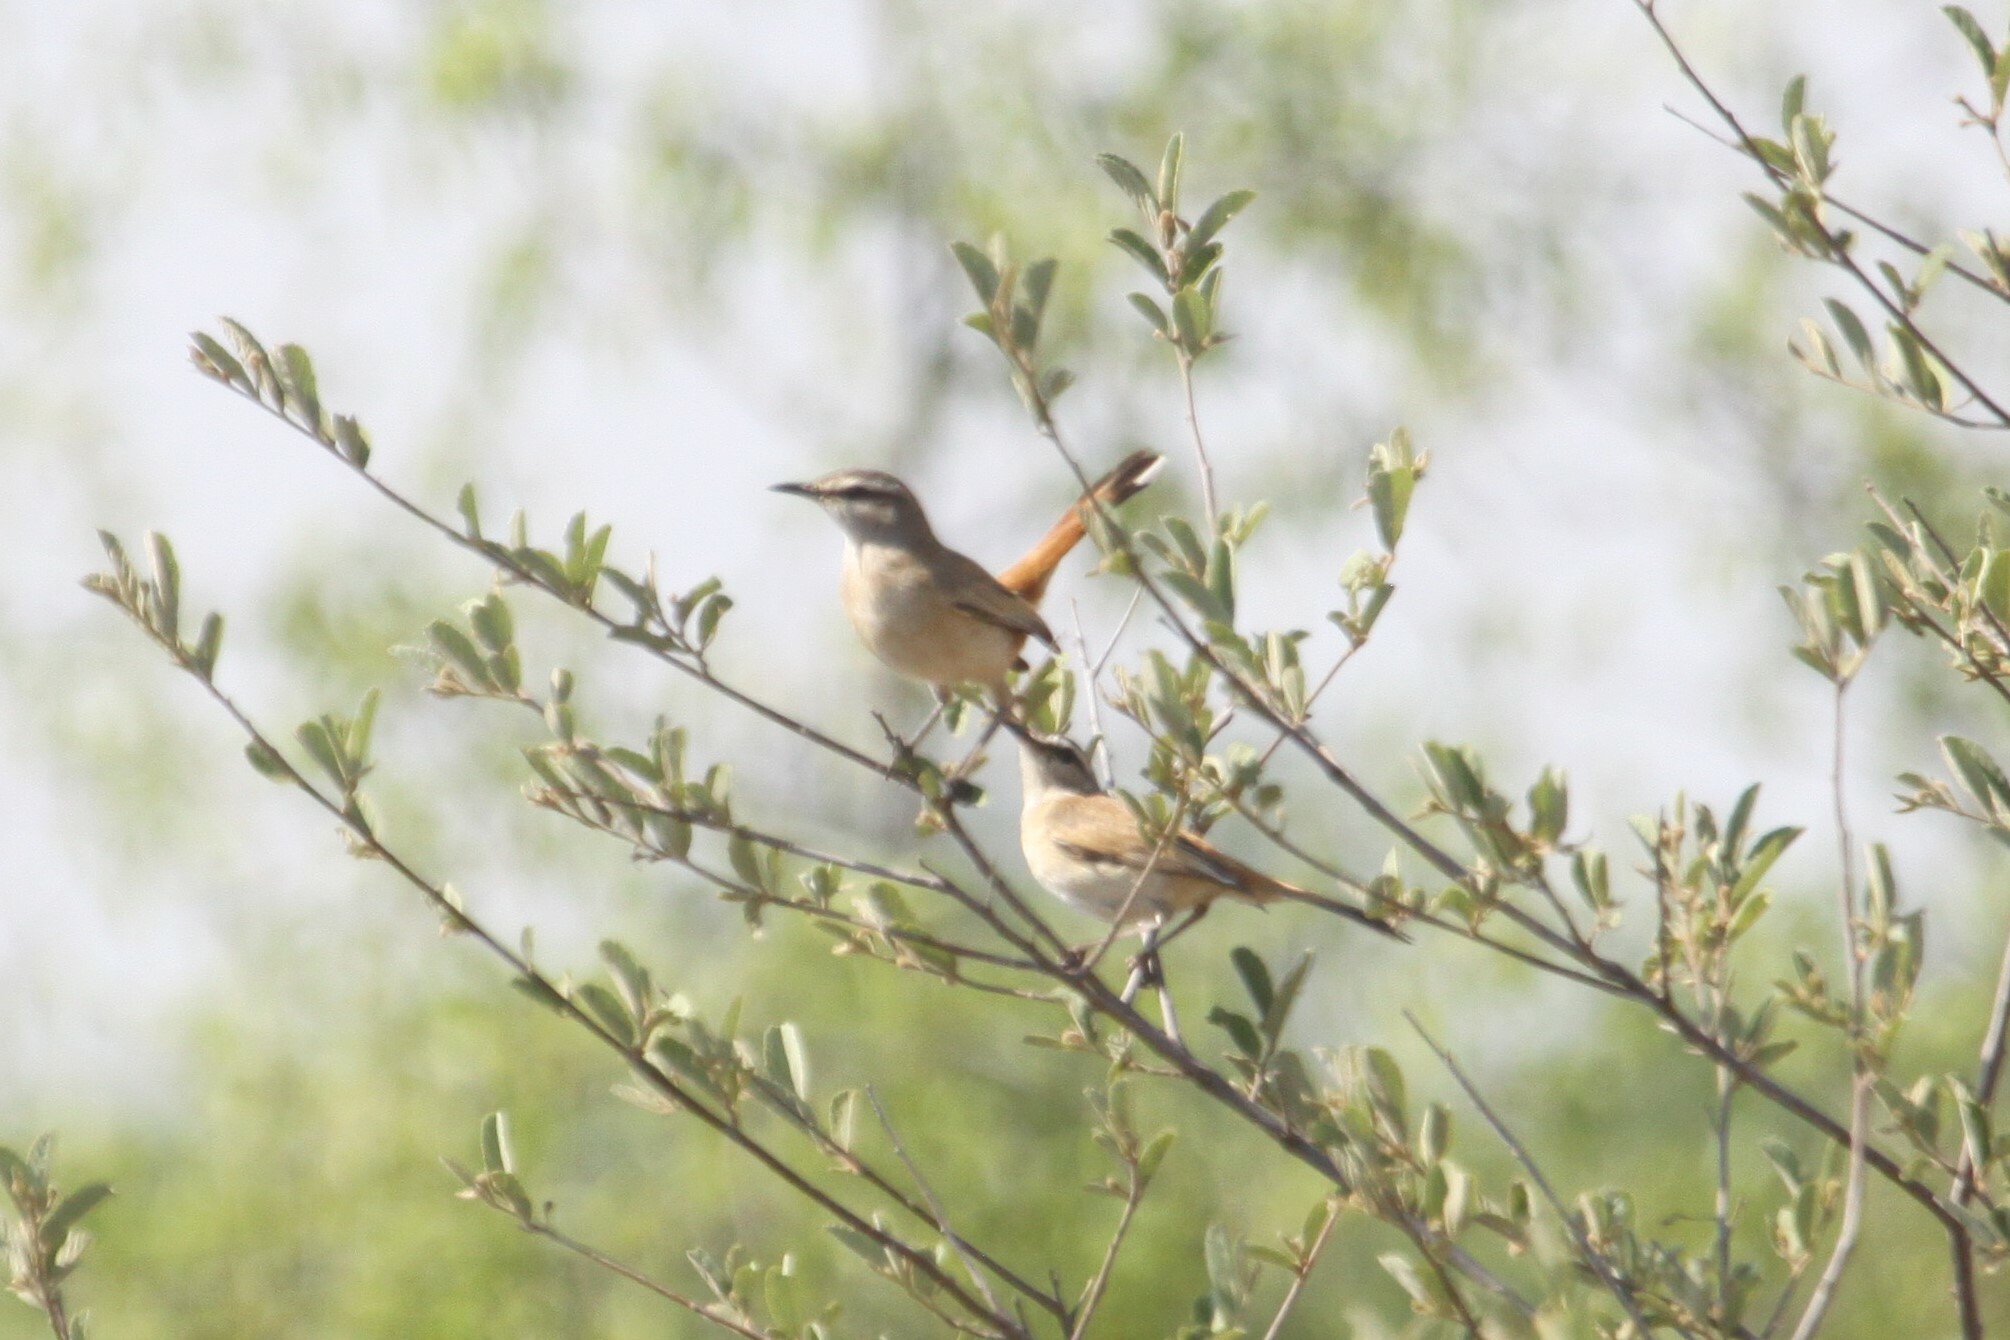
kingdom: Animalia
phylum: Chordata
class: Aves
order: Passeriformes
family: Muscicapidae
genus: Erythropygia
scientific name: Erythropygia paena
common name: Kalahari scrub robin
